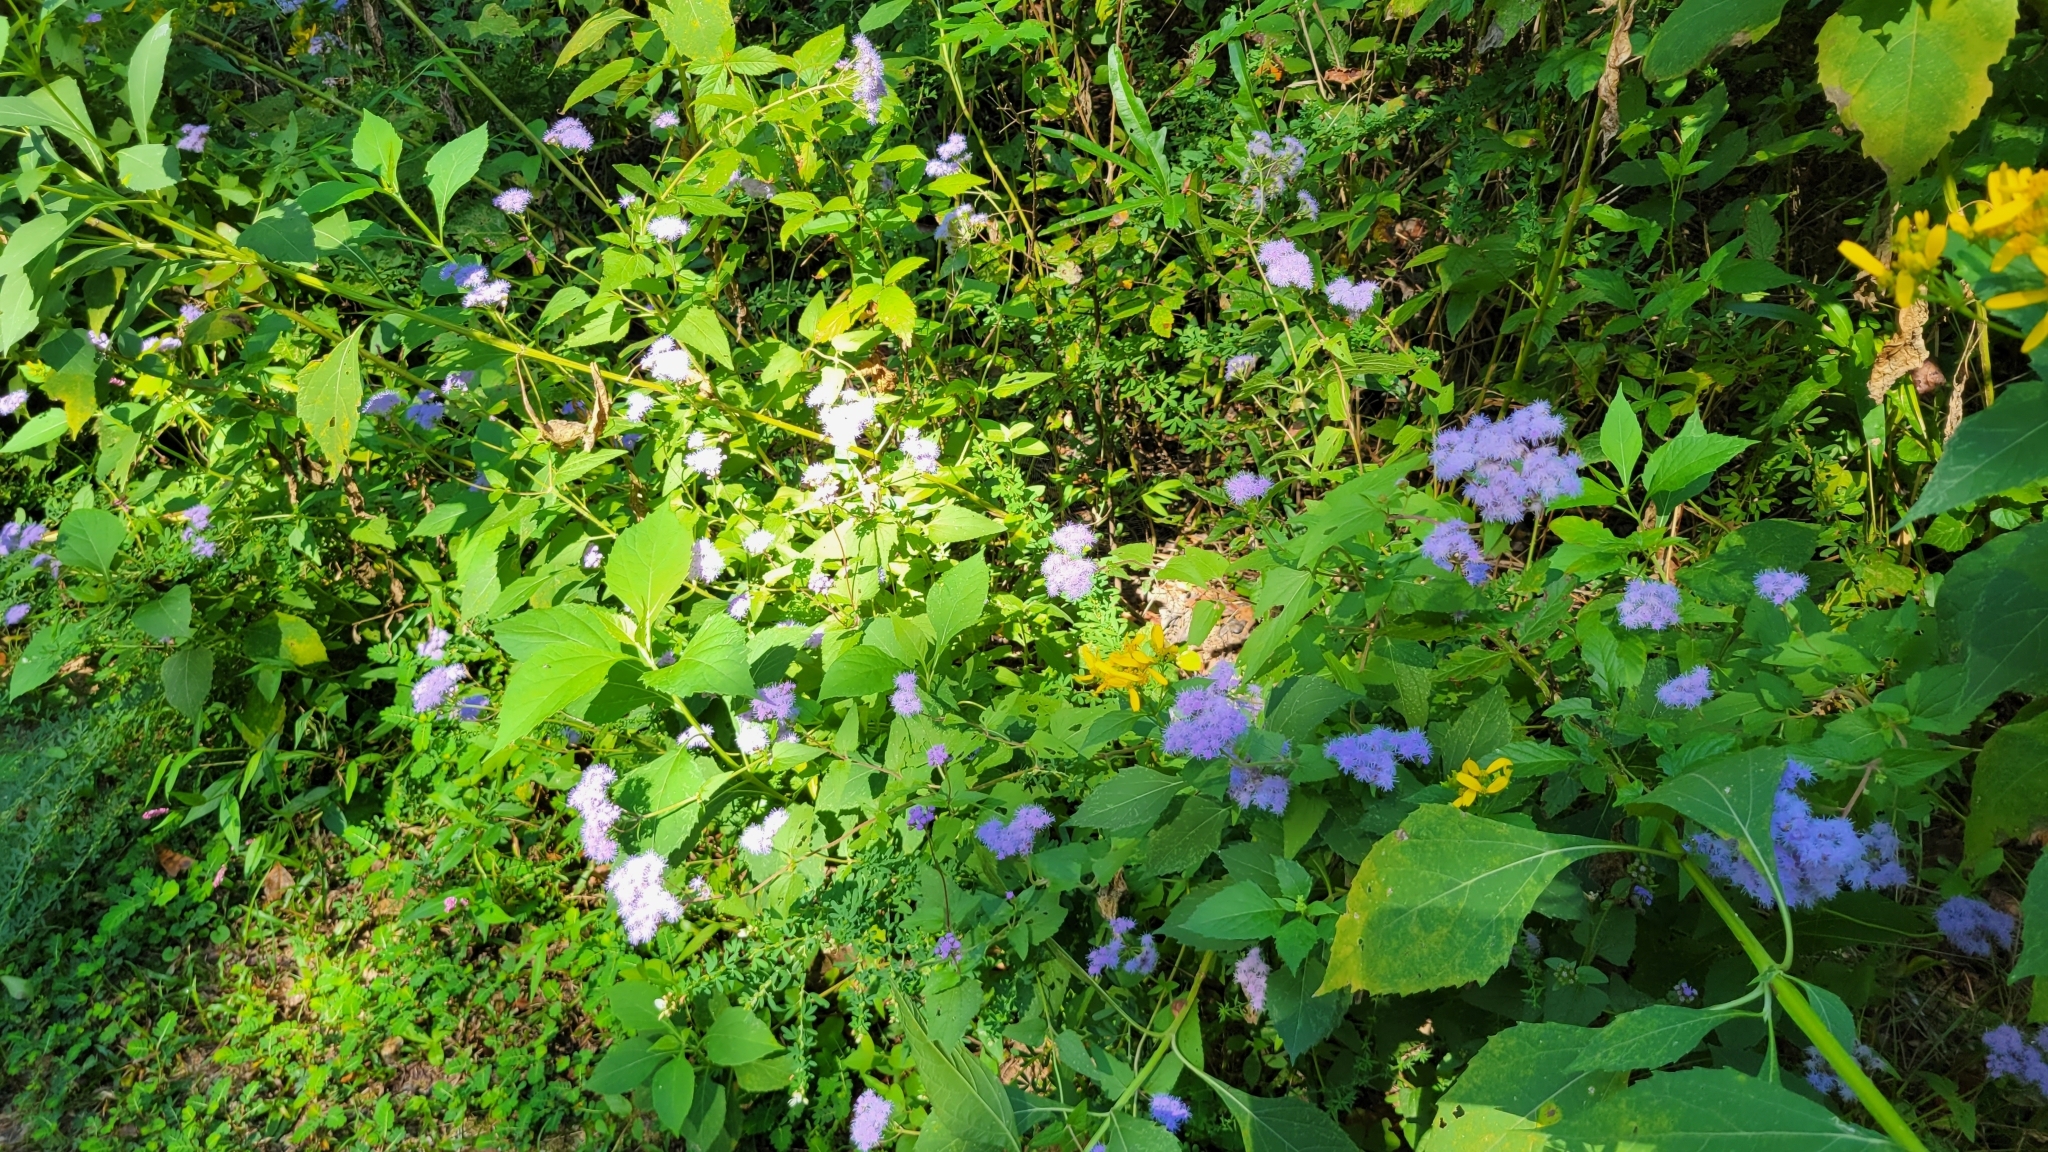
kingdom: Plantae
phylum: Tracheophyta
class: Magnoliopsida
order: Asterales
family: Asteraceae
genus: Conoclinium
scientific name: Conoclinium coelestinum
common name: Blue mistflower
